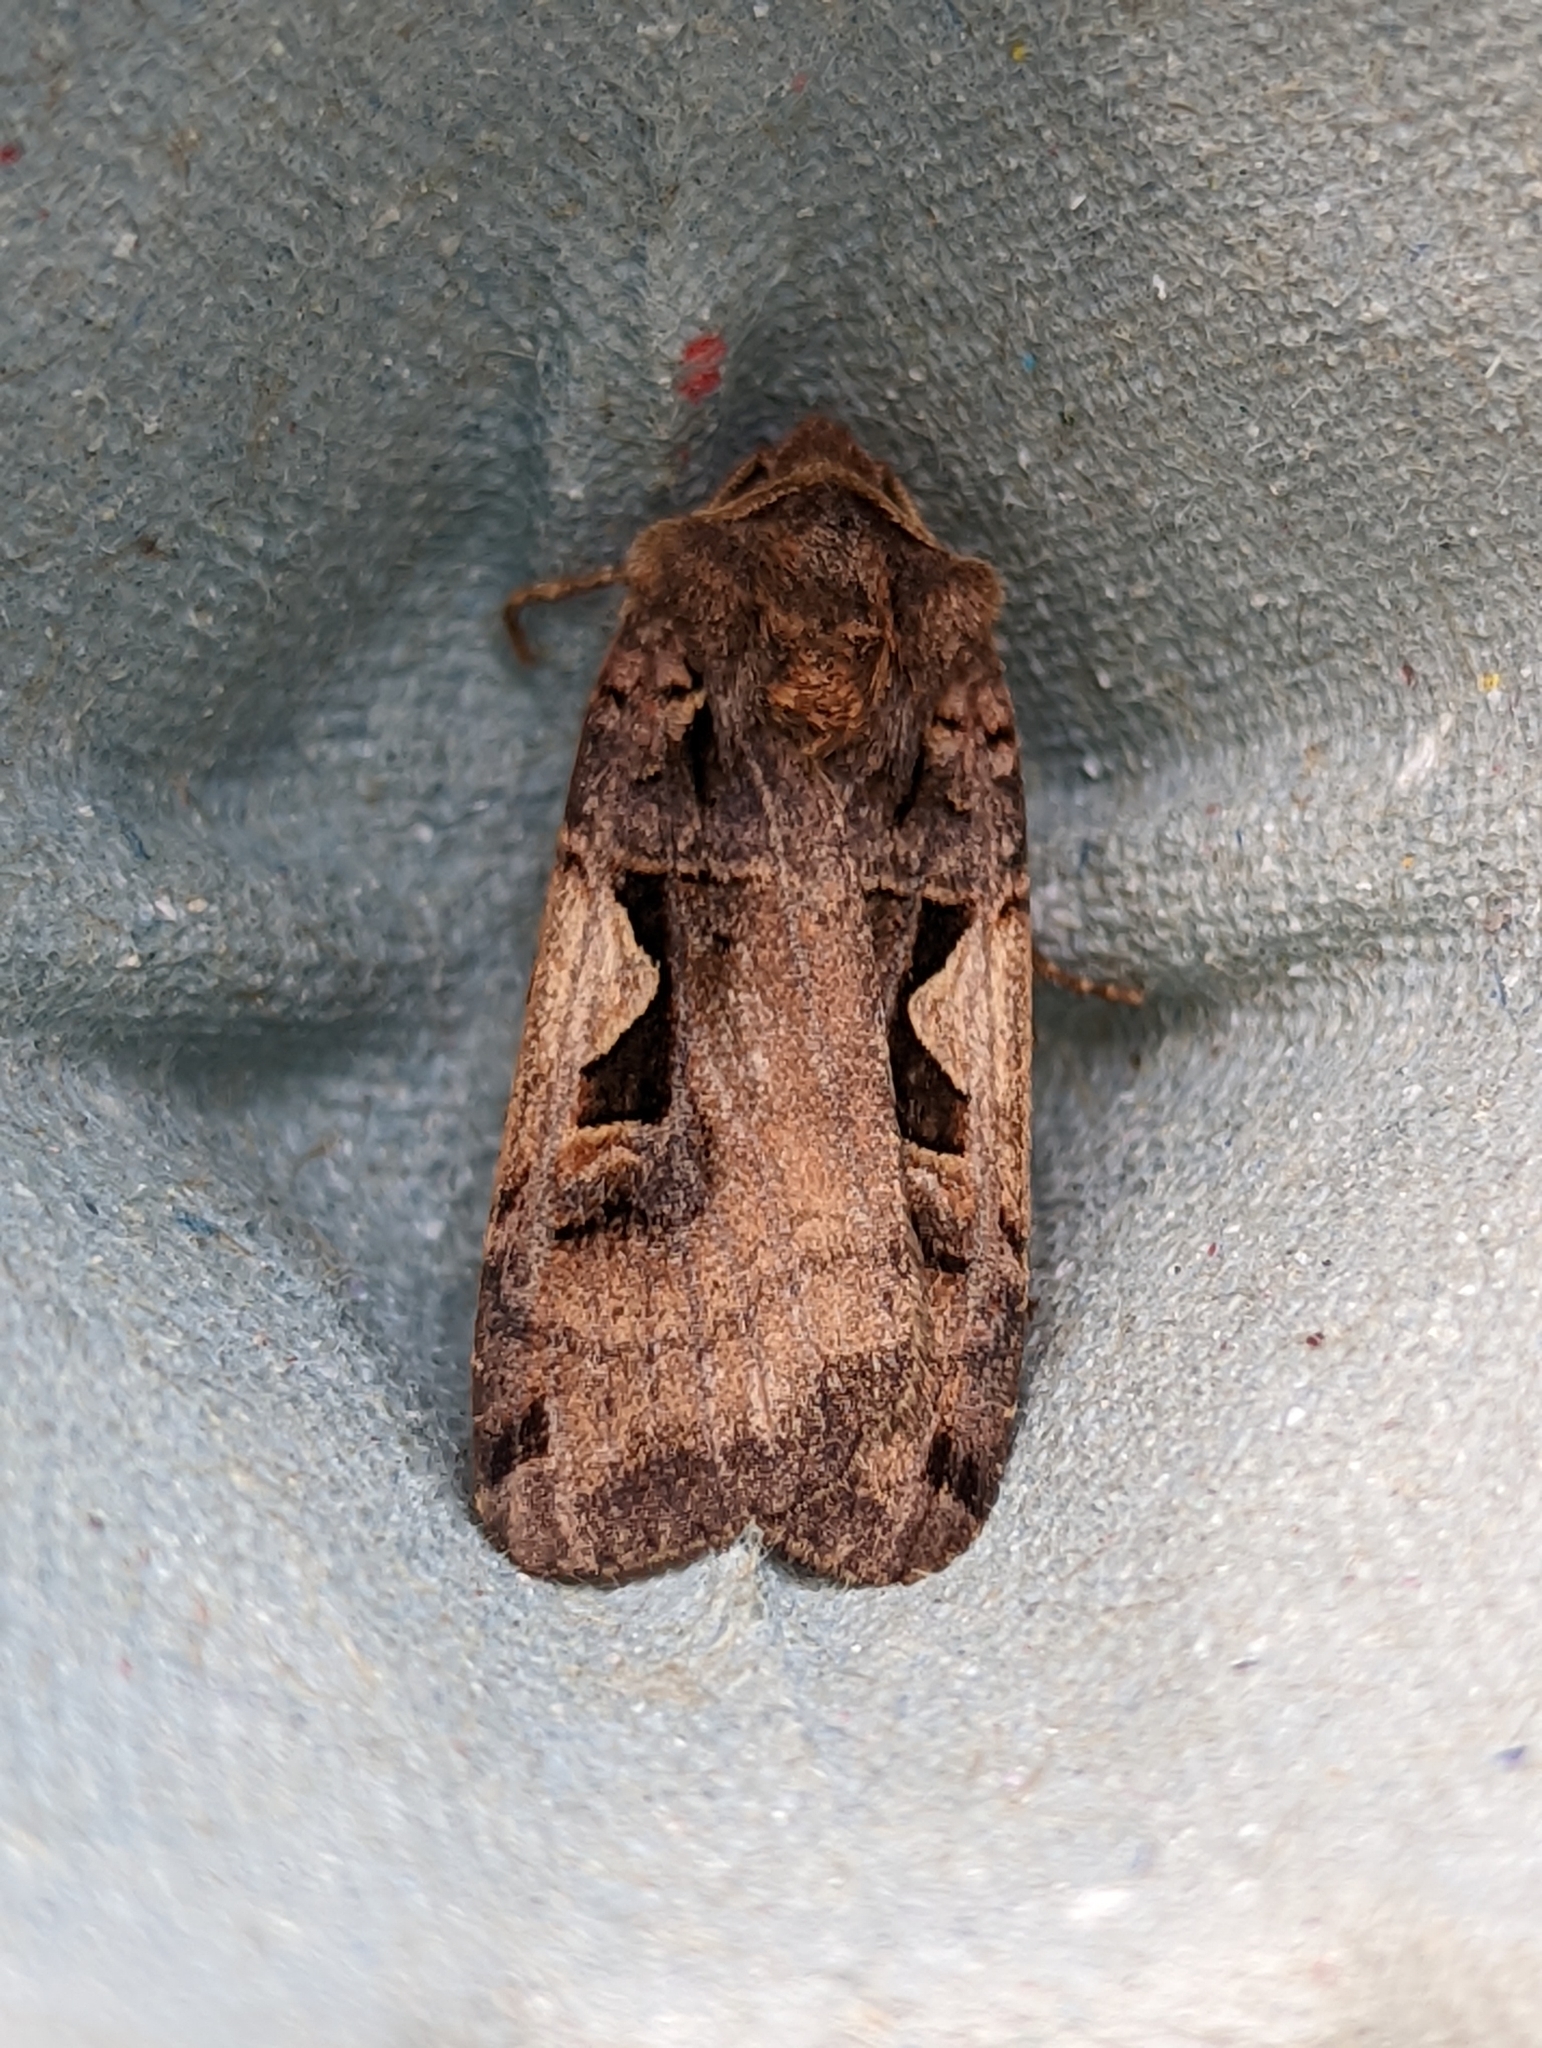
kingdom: Animalia
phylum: Arthropoda
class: Insecta
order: Lepidoptera
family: Noctuidae
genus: Xestia
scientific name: Xestia c-nigrum
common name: Setaceous hebrew character
